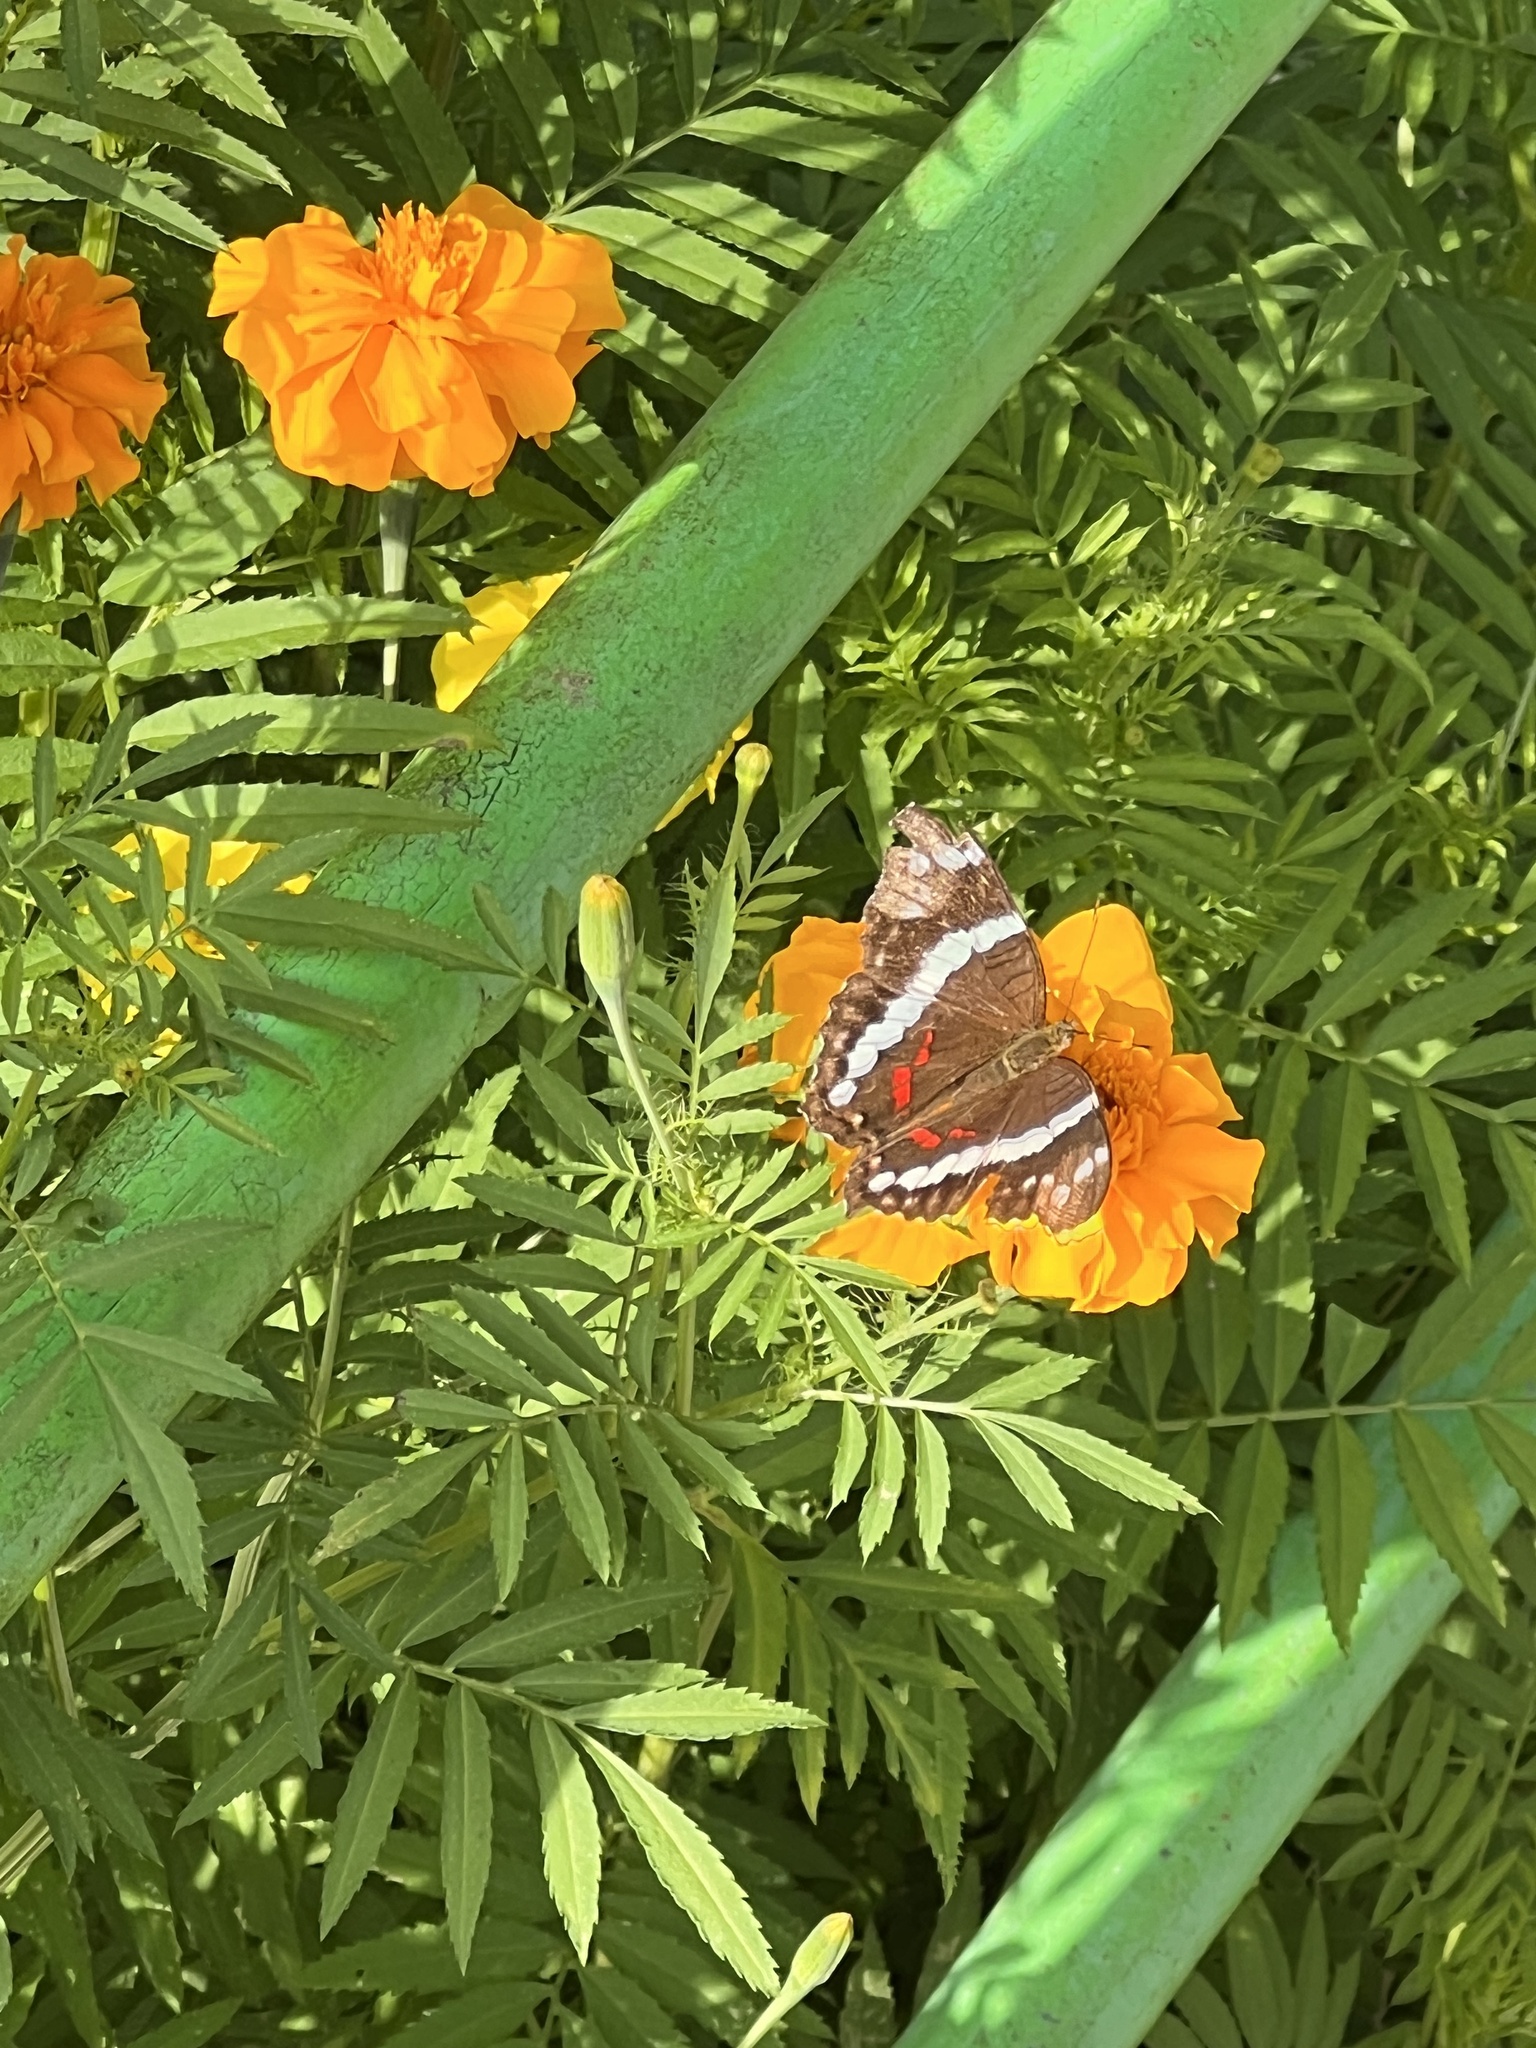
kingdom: Animalia
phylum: Arthropoda
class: Insecta
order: Lepidoptera
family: Nymphalidae
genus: Anartia
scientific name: Anartia fatima
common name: Banded peacock
